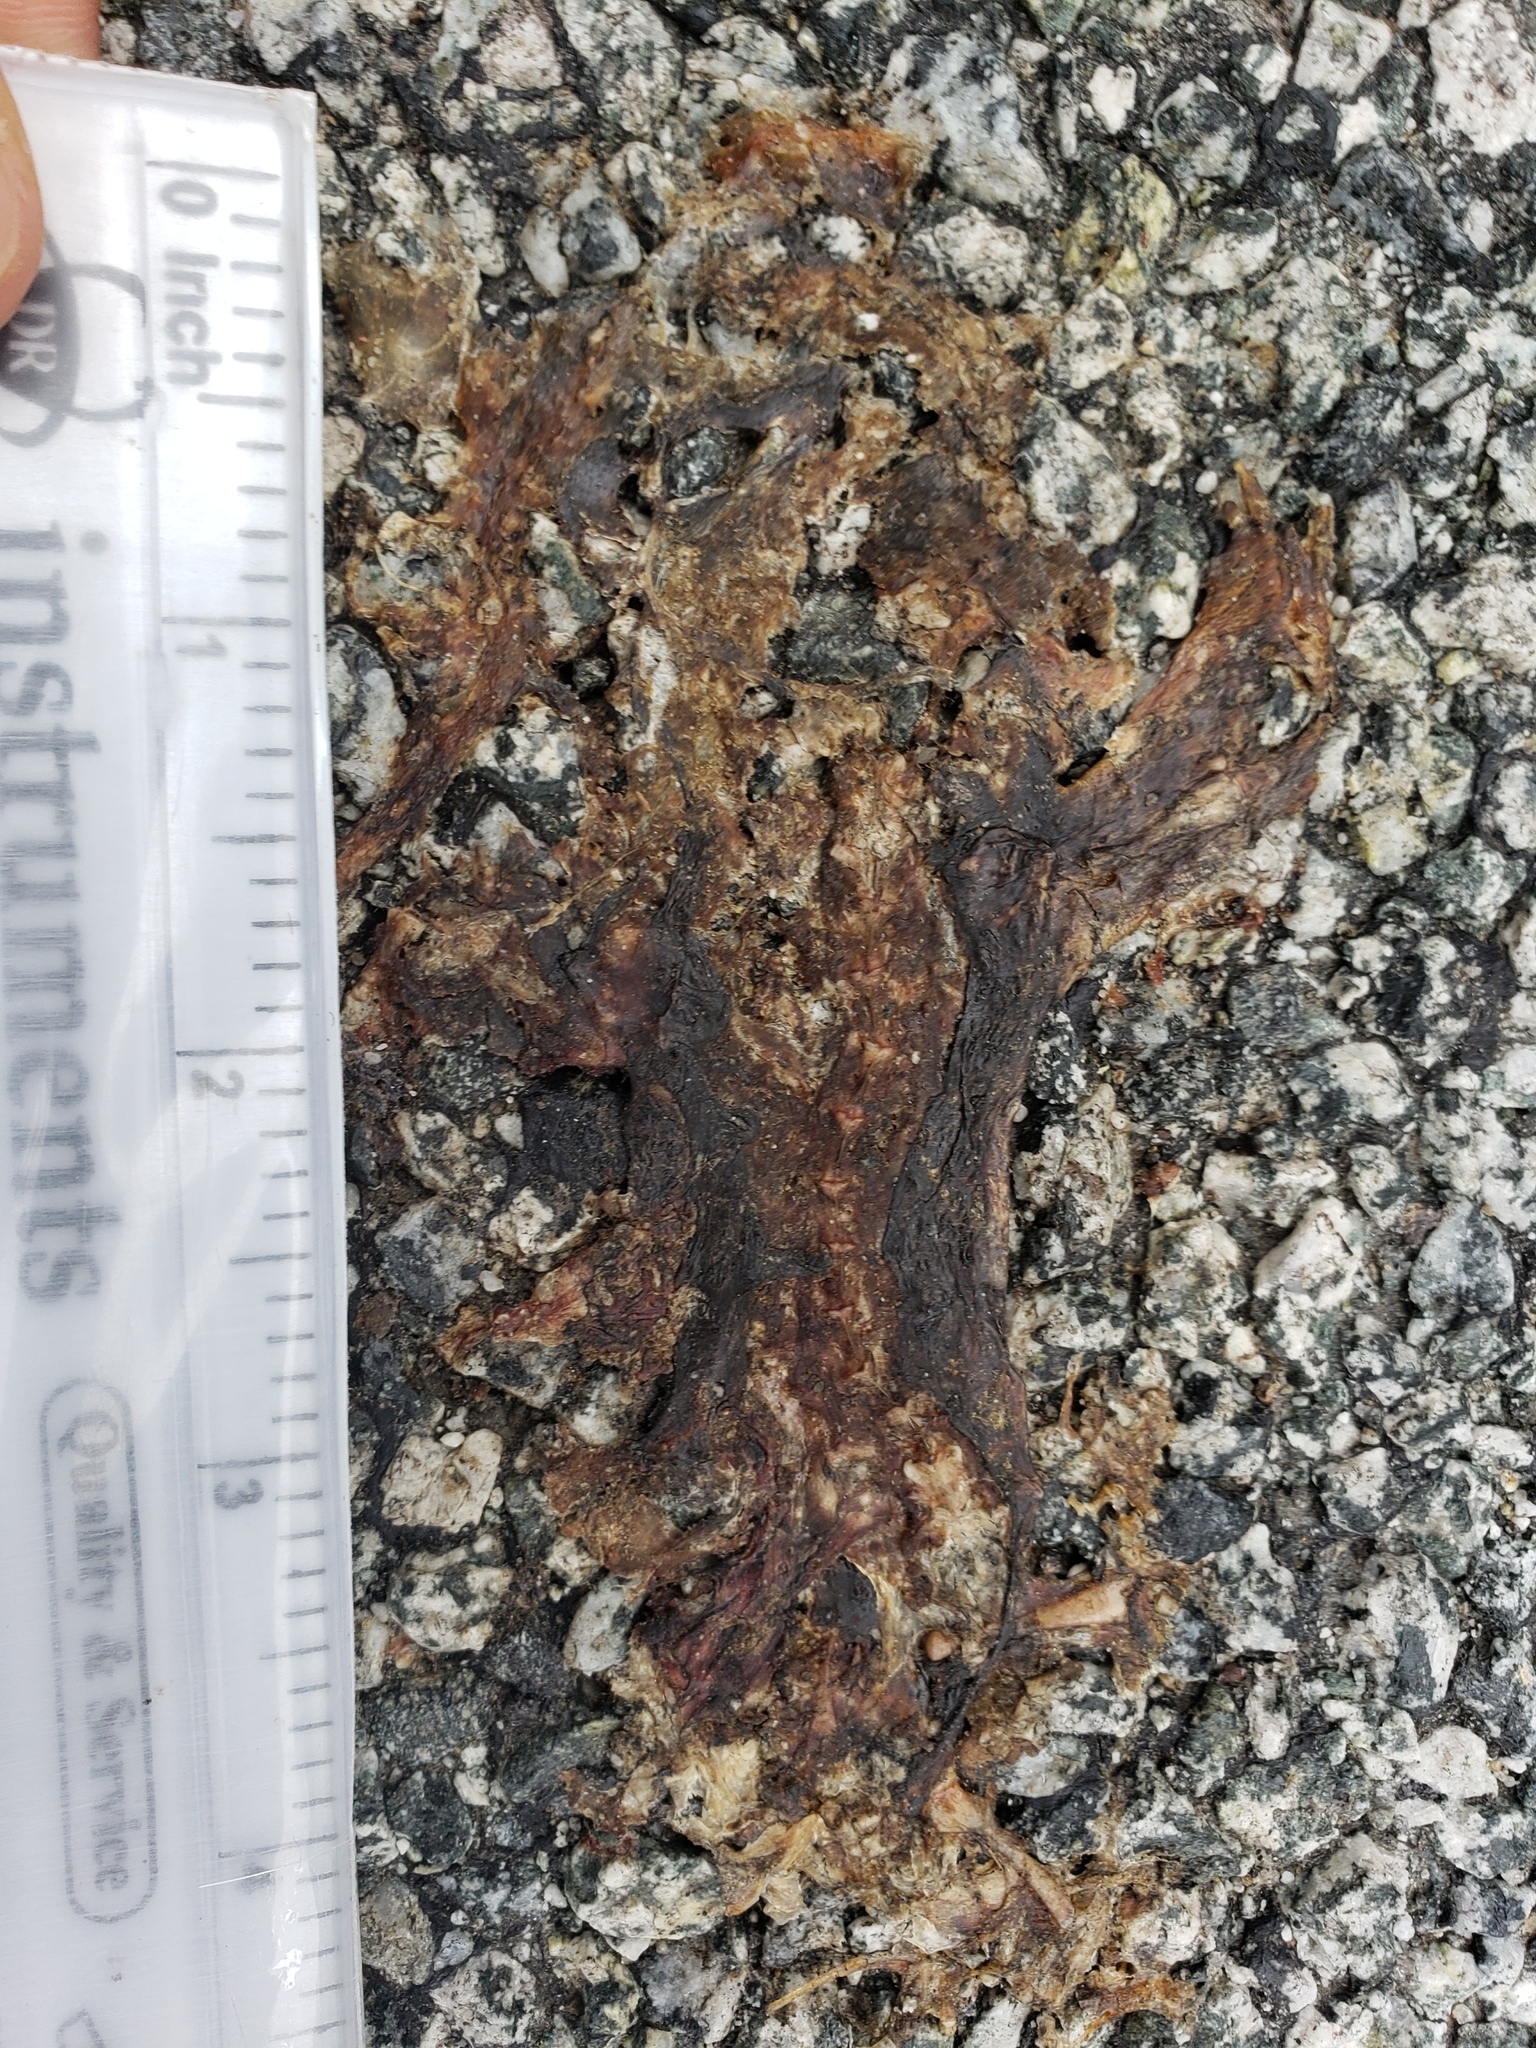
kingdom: Animalia
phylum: Chordata
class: Amphibia
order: Caudata
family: Salamandridae
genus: Taricha
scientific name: Taricha
